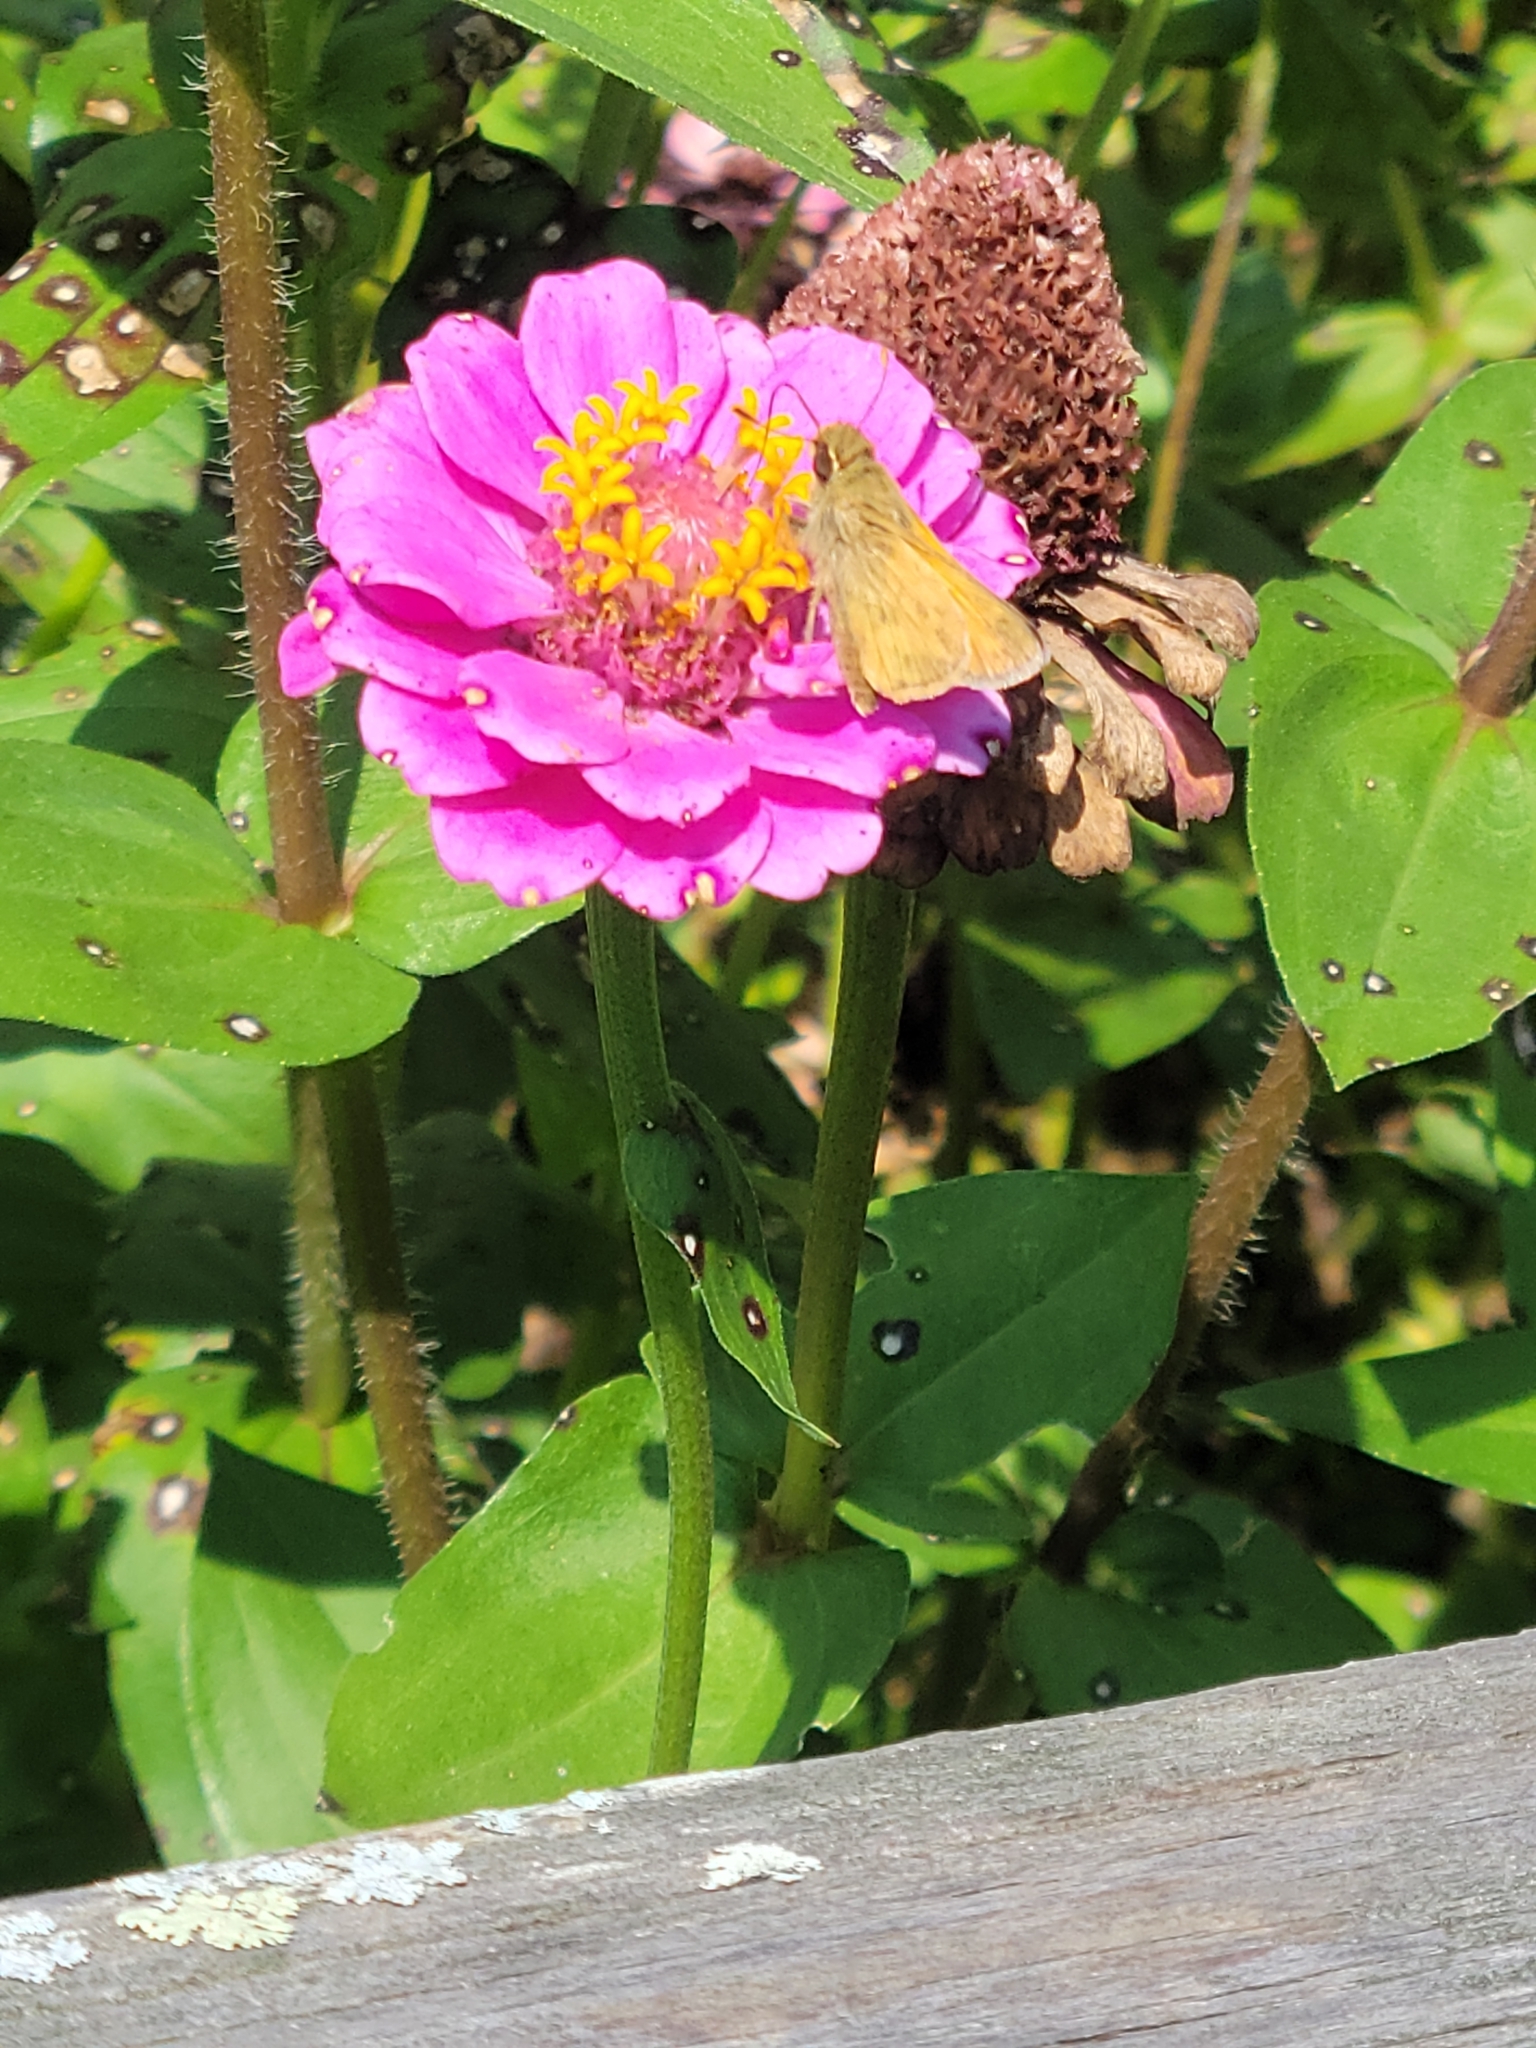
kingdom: Animalia
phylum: Arthropoda
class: Insecta
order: Lepidoptera
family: Hesperiidae
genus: Atalopedes
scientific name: Atalopedes
